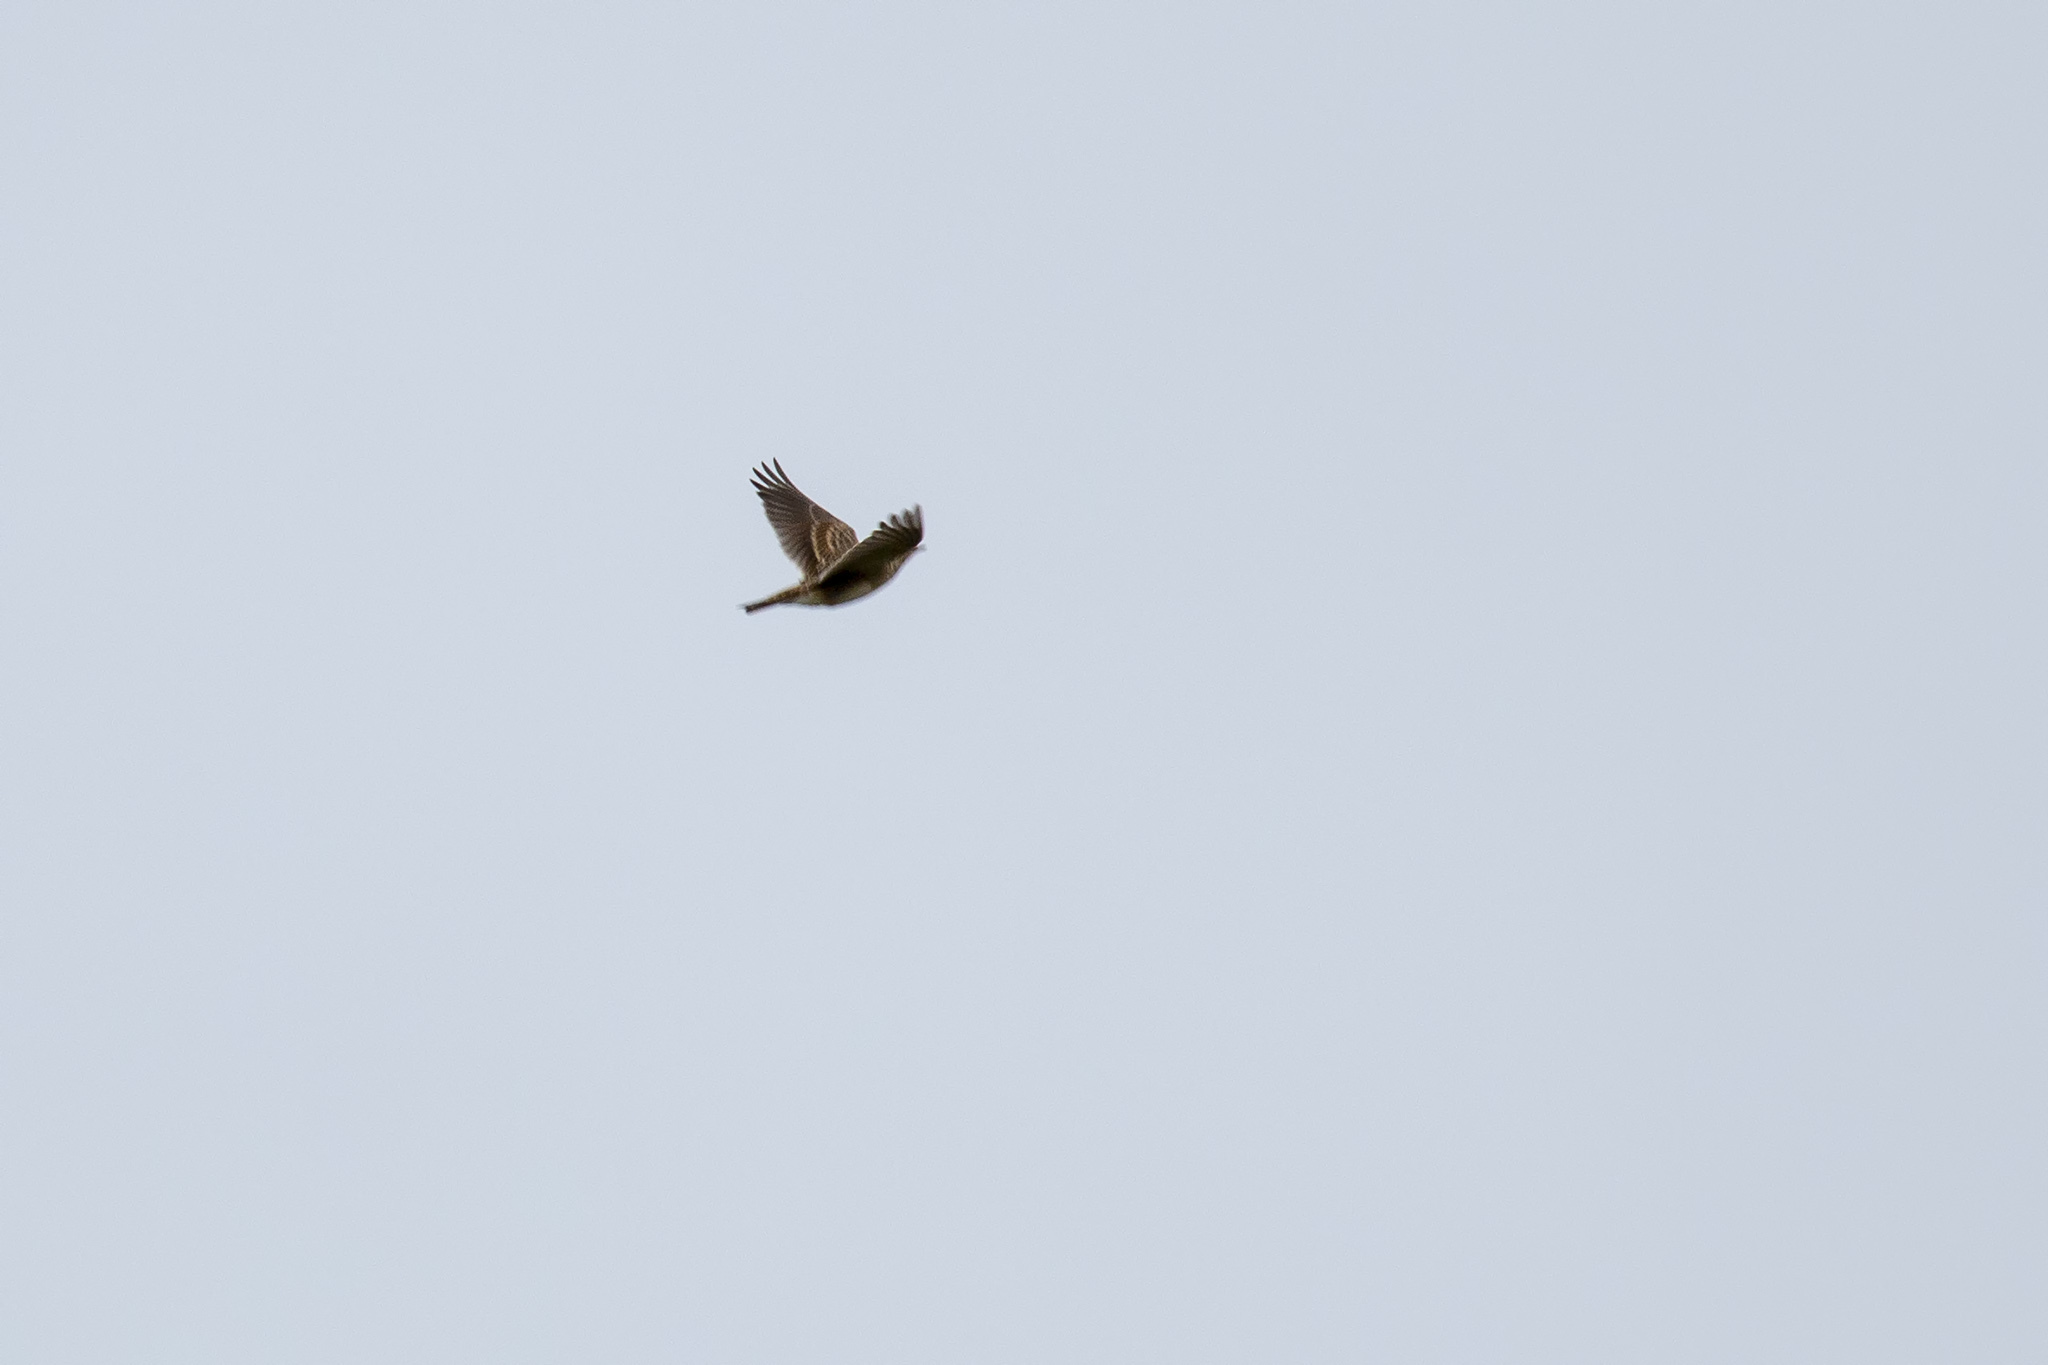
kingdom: Animalia
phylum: Chordata
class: Aves
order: Passeriformes
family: Alaudidae
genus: Alauda
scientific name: Alauda arvensis
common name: Eurasian skylark
